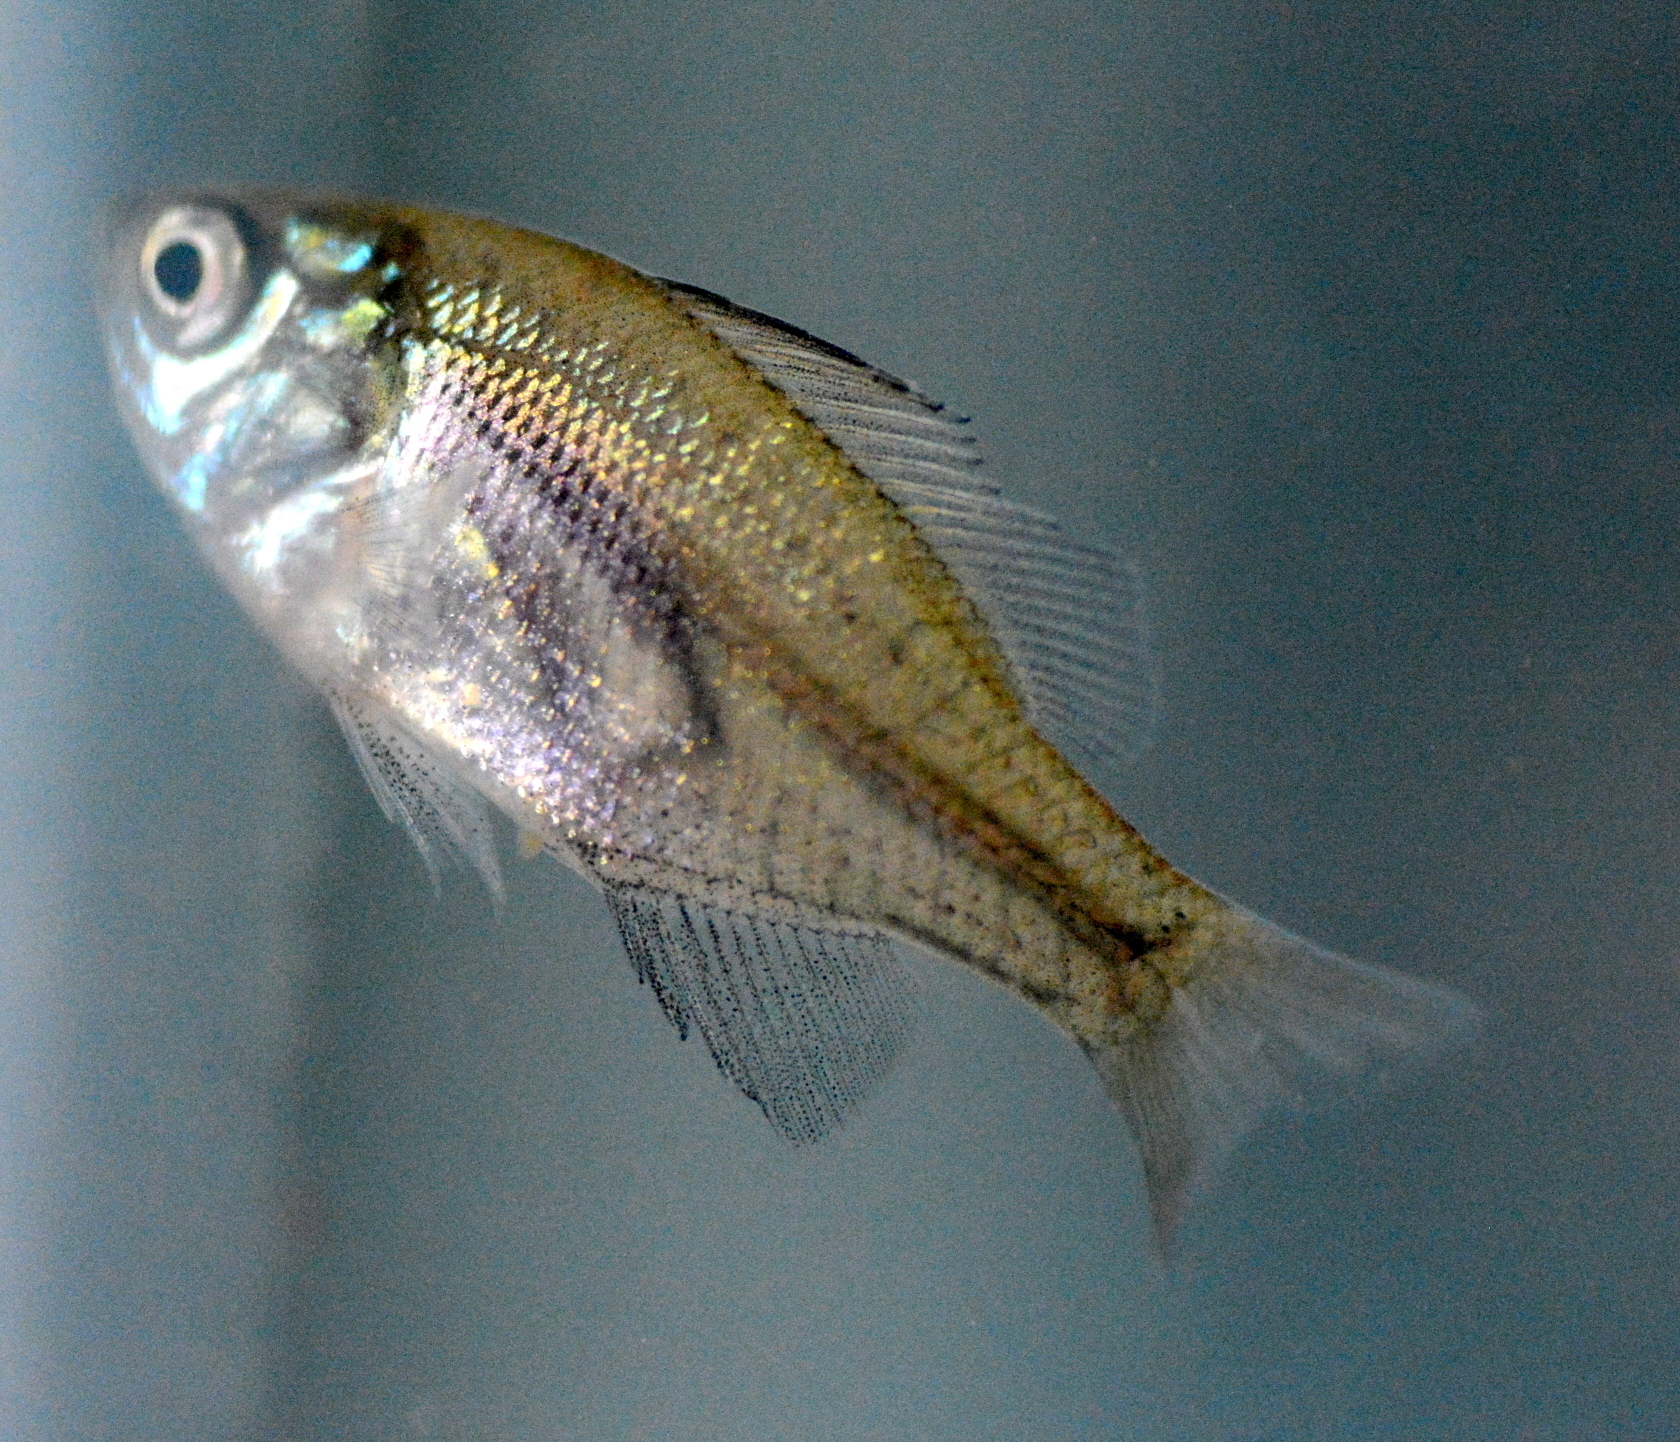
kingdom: Animalia
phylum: Chordata
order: Perciformes
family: Centrarchidae
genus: Lepomis
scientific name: Lepomis macrochirus
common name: Bluegill
